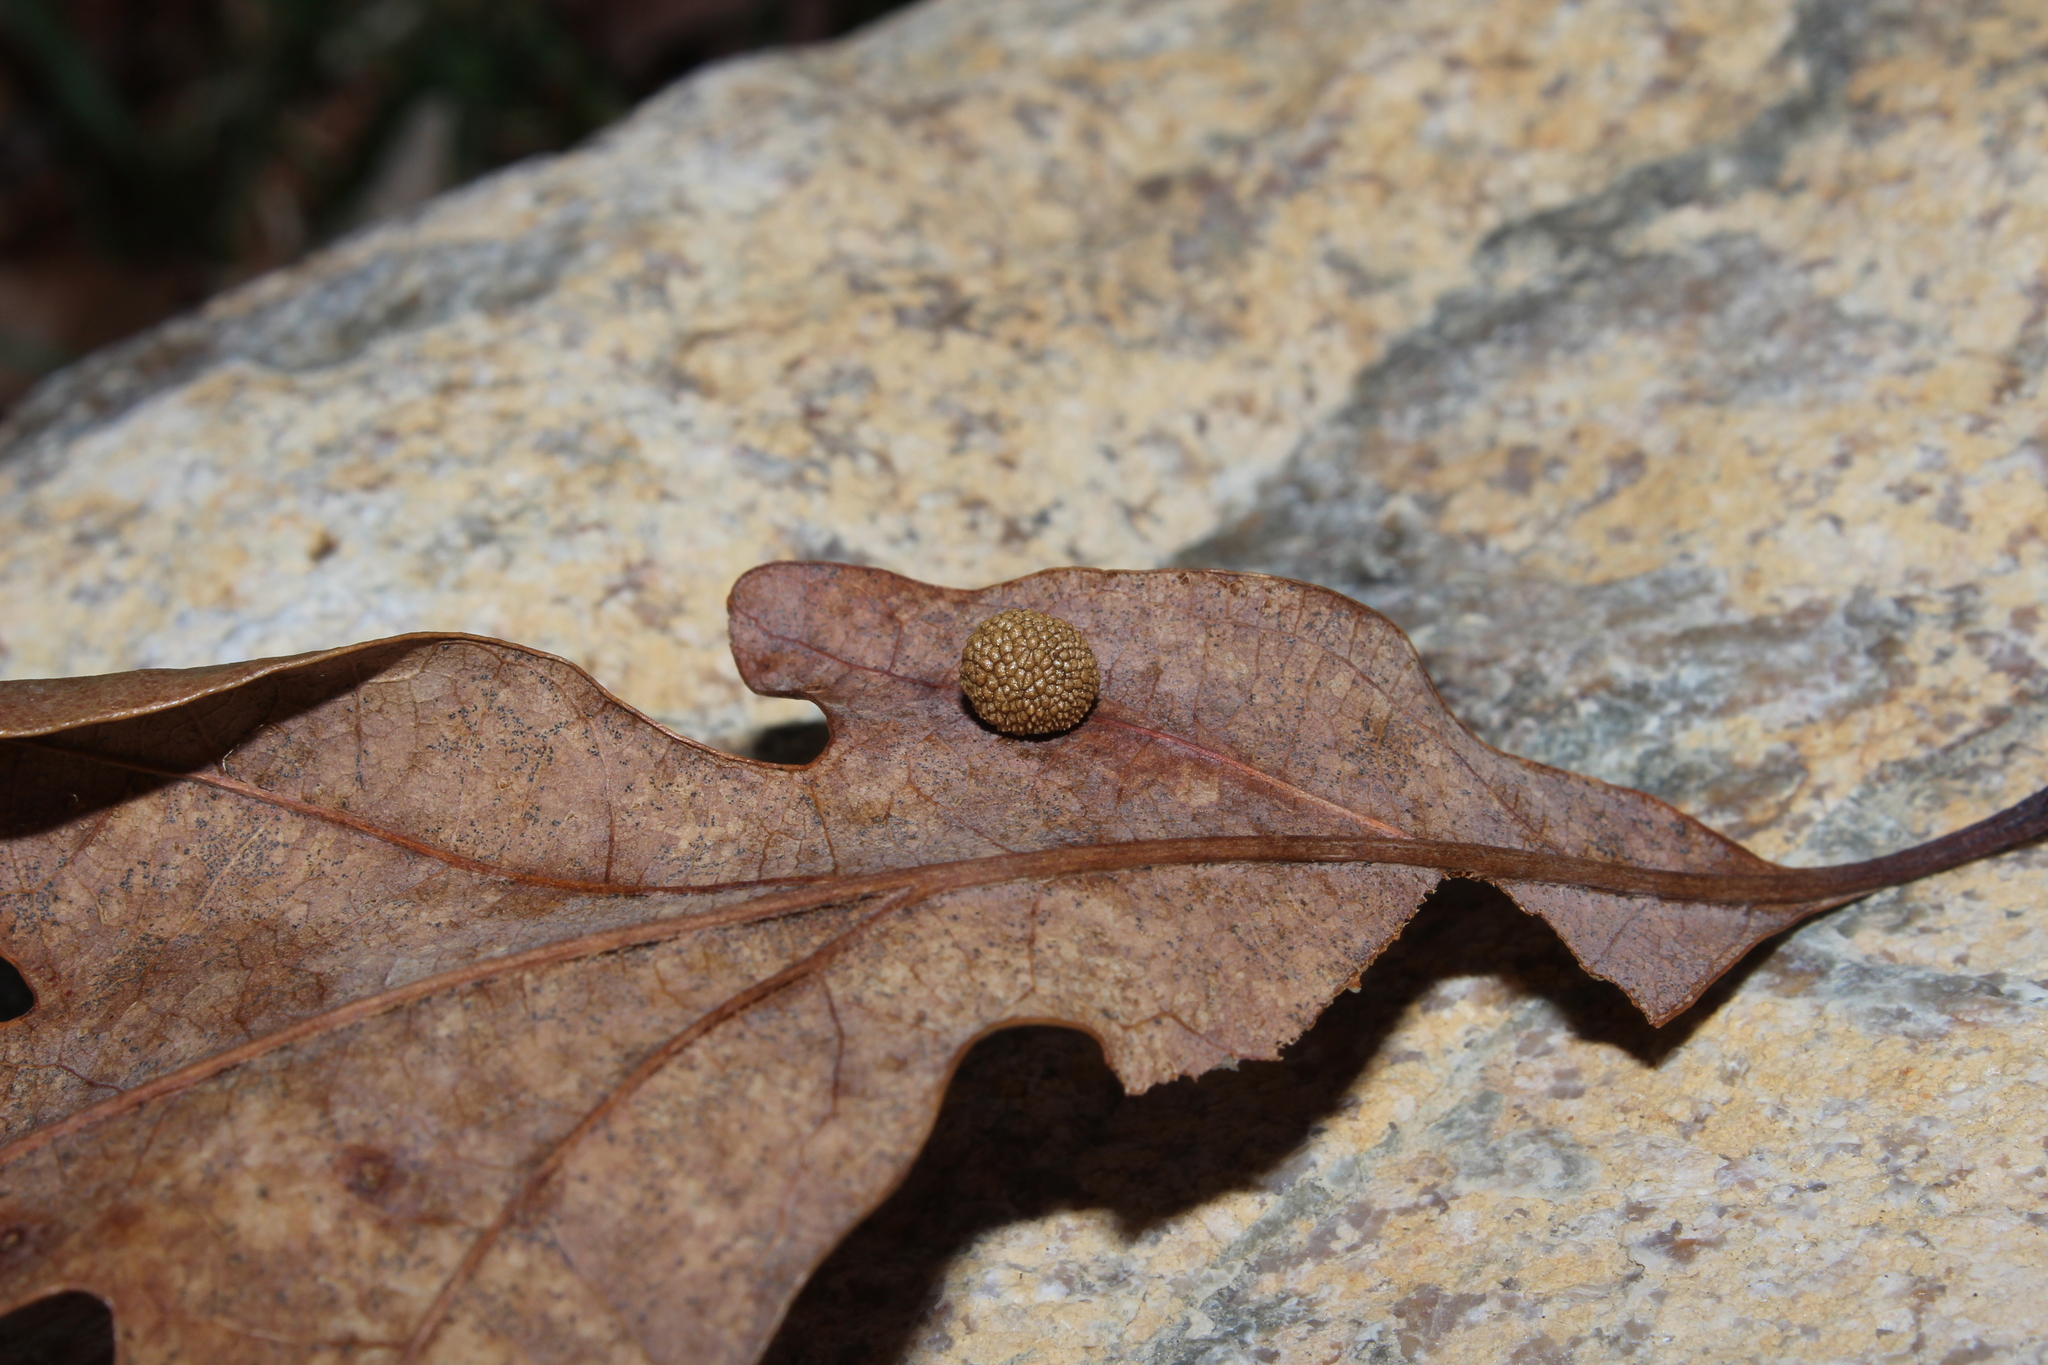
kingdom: Animalia
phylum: Arthropoda
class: Insecta
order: Hymenoptera
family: Cynipidae
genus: Acraspis
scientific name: Acraspis
